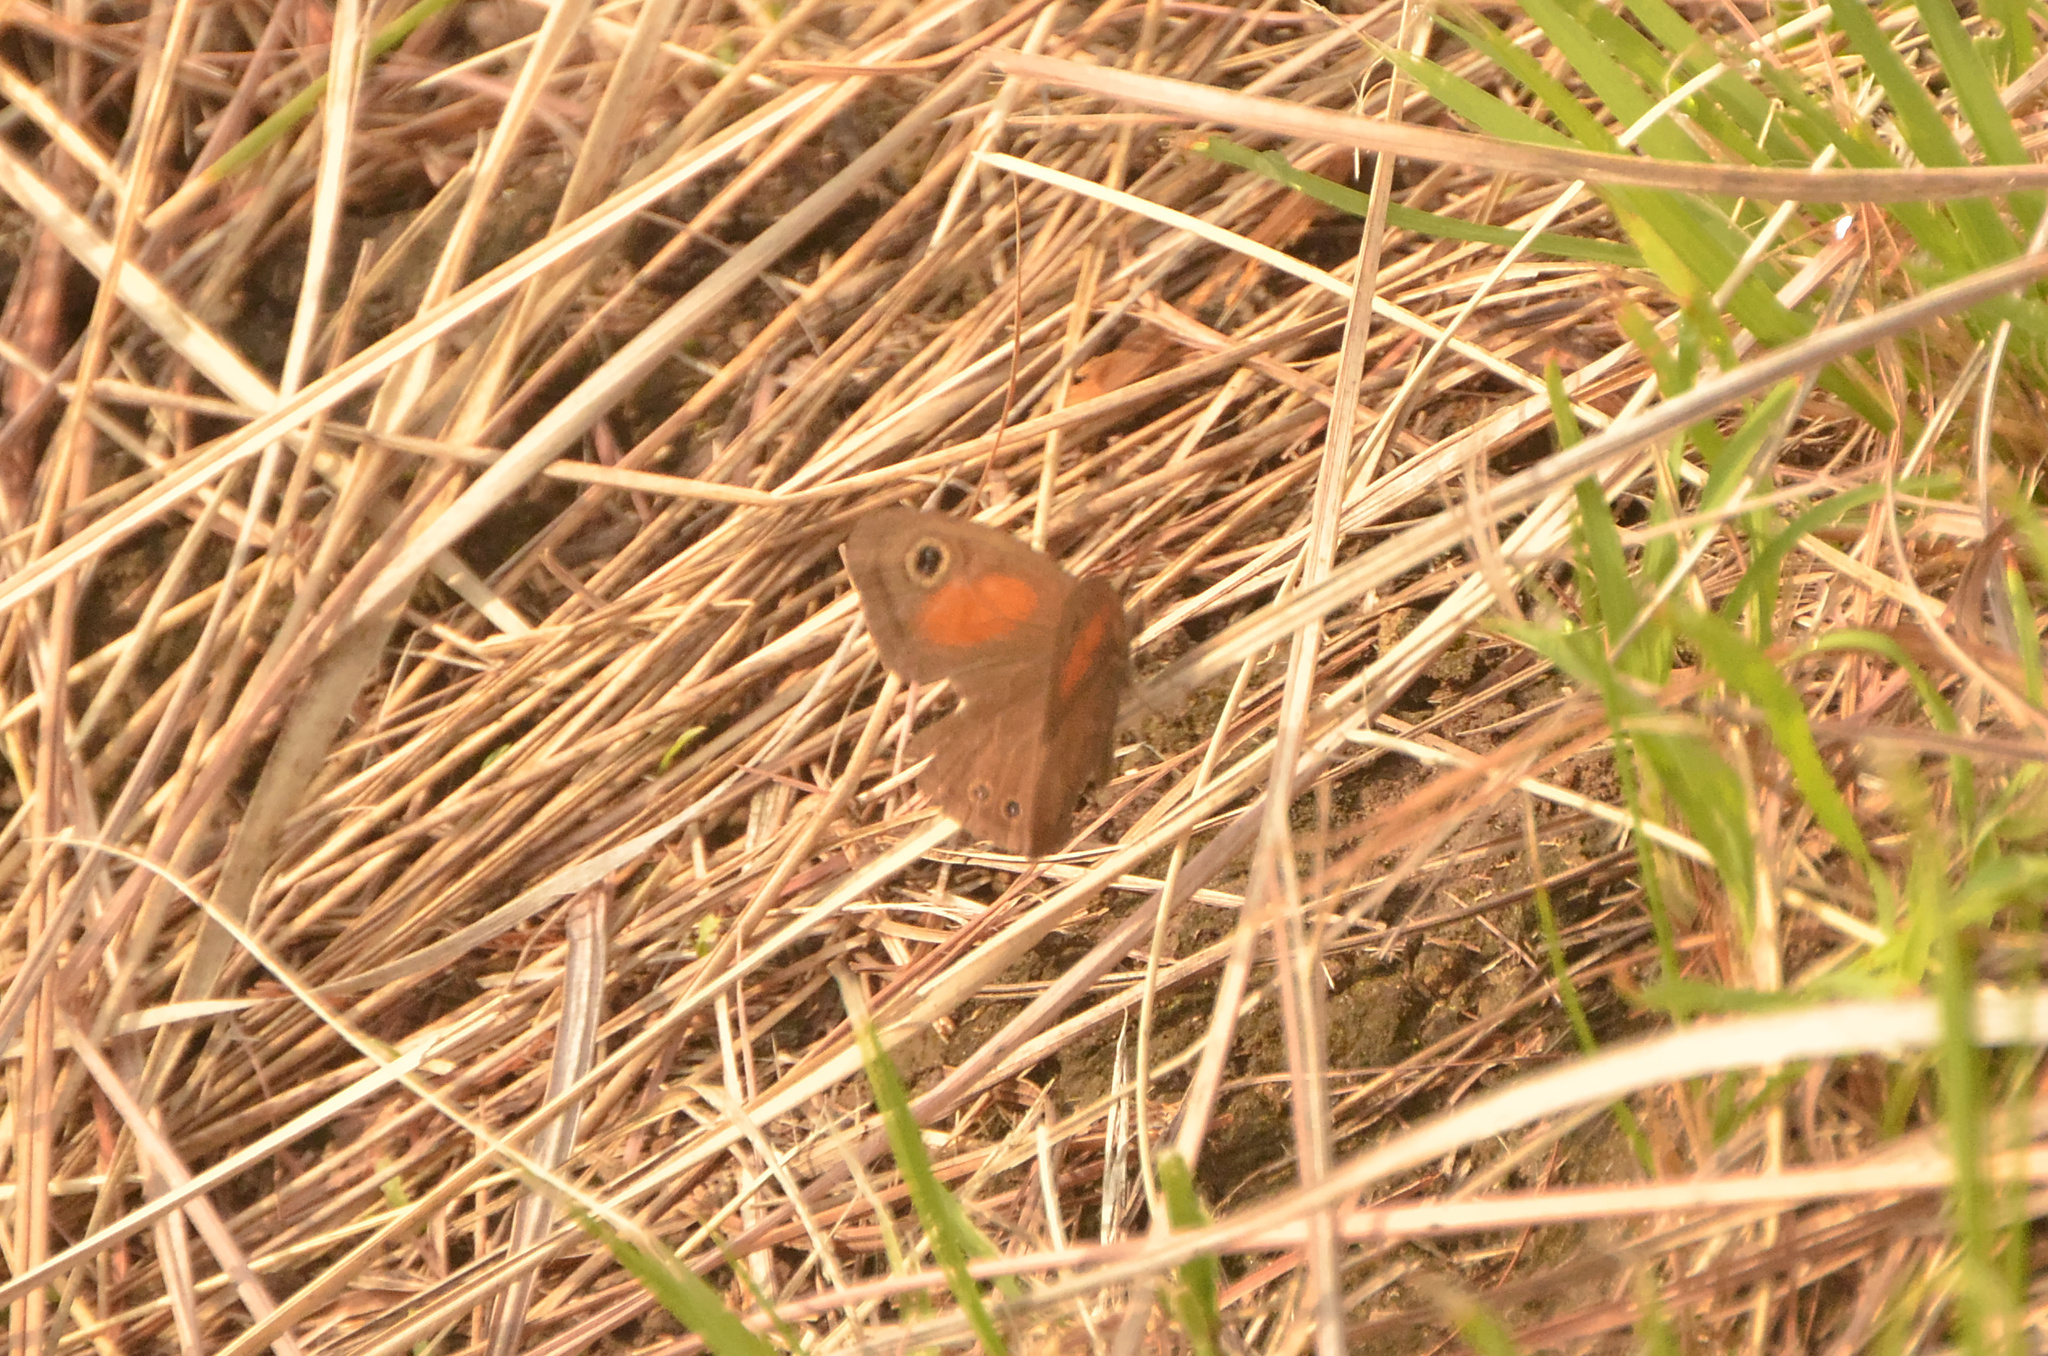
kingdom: Animalia
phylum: Arthropoda
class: Insecta
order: Lepidoptera
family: Nymphalidae
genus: Cassionympha
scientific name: Cassionympha cassius
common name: Rainforest brown
